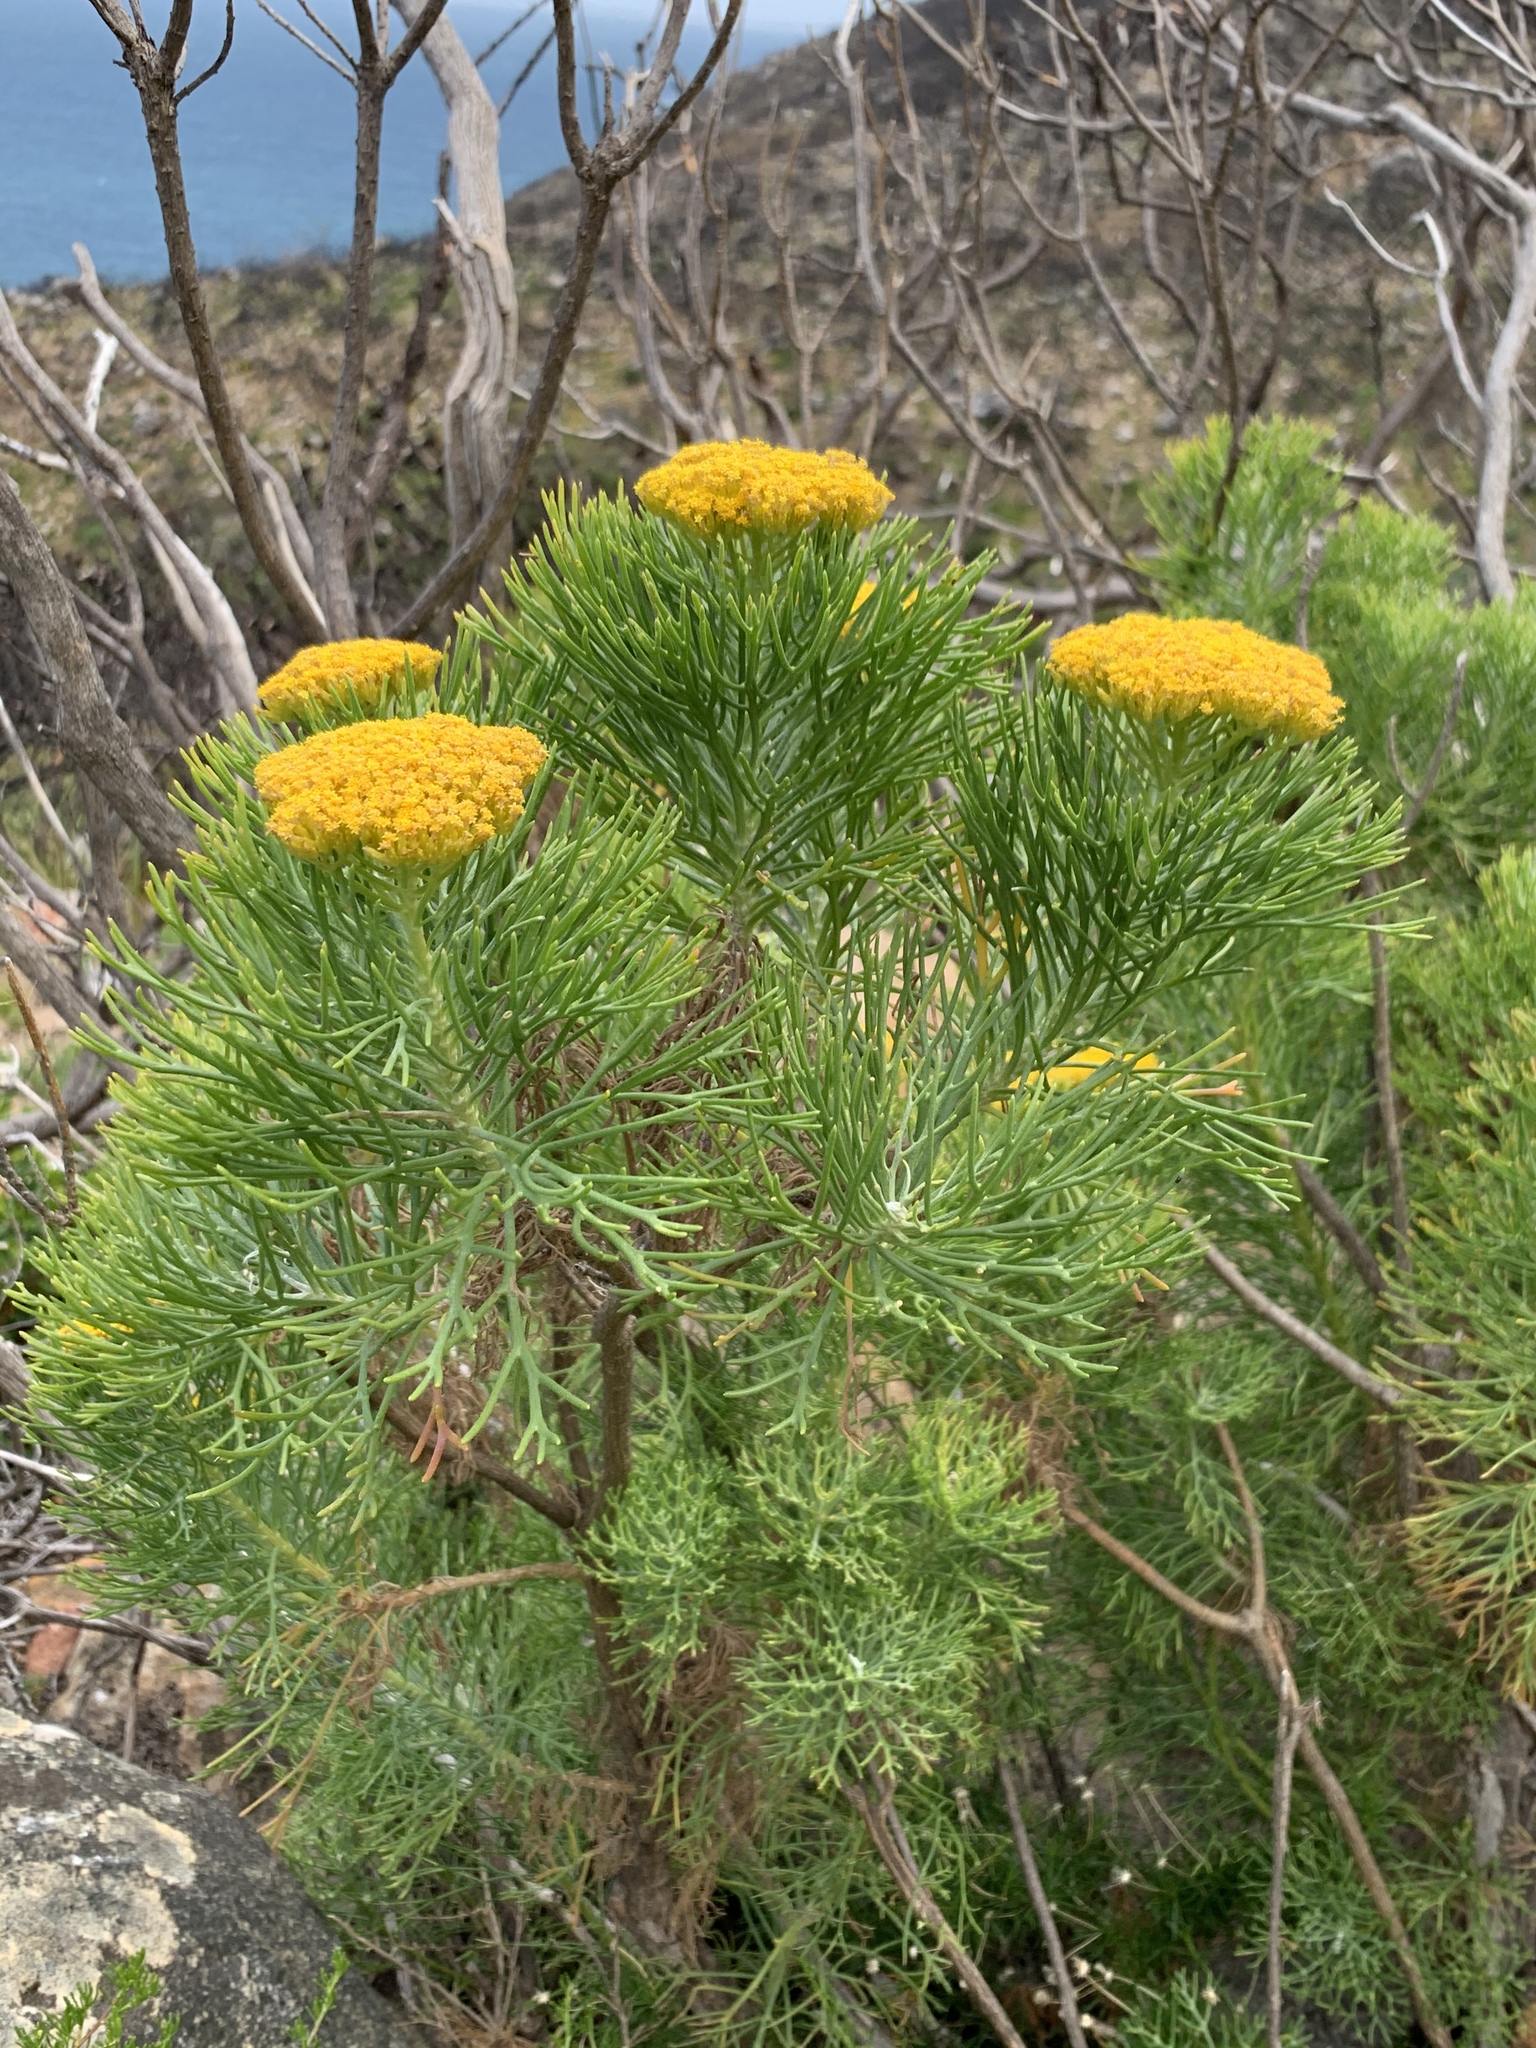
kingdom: Plantae
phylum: Tracheophyta
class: Magnoliopsida
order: Asterales
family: Asteraceae
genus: Hymenolepis
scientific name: Hymenolepis crithmifolia
